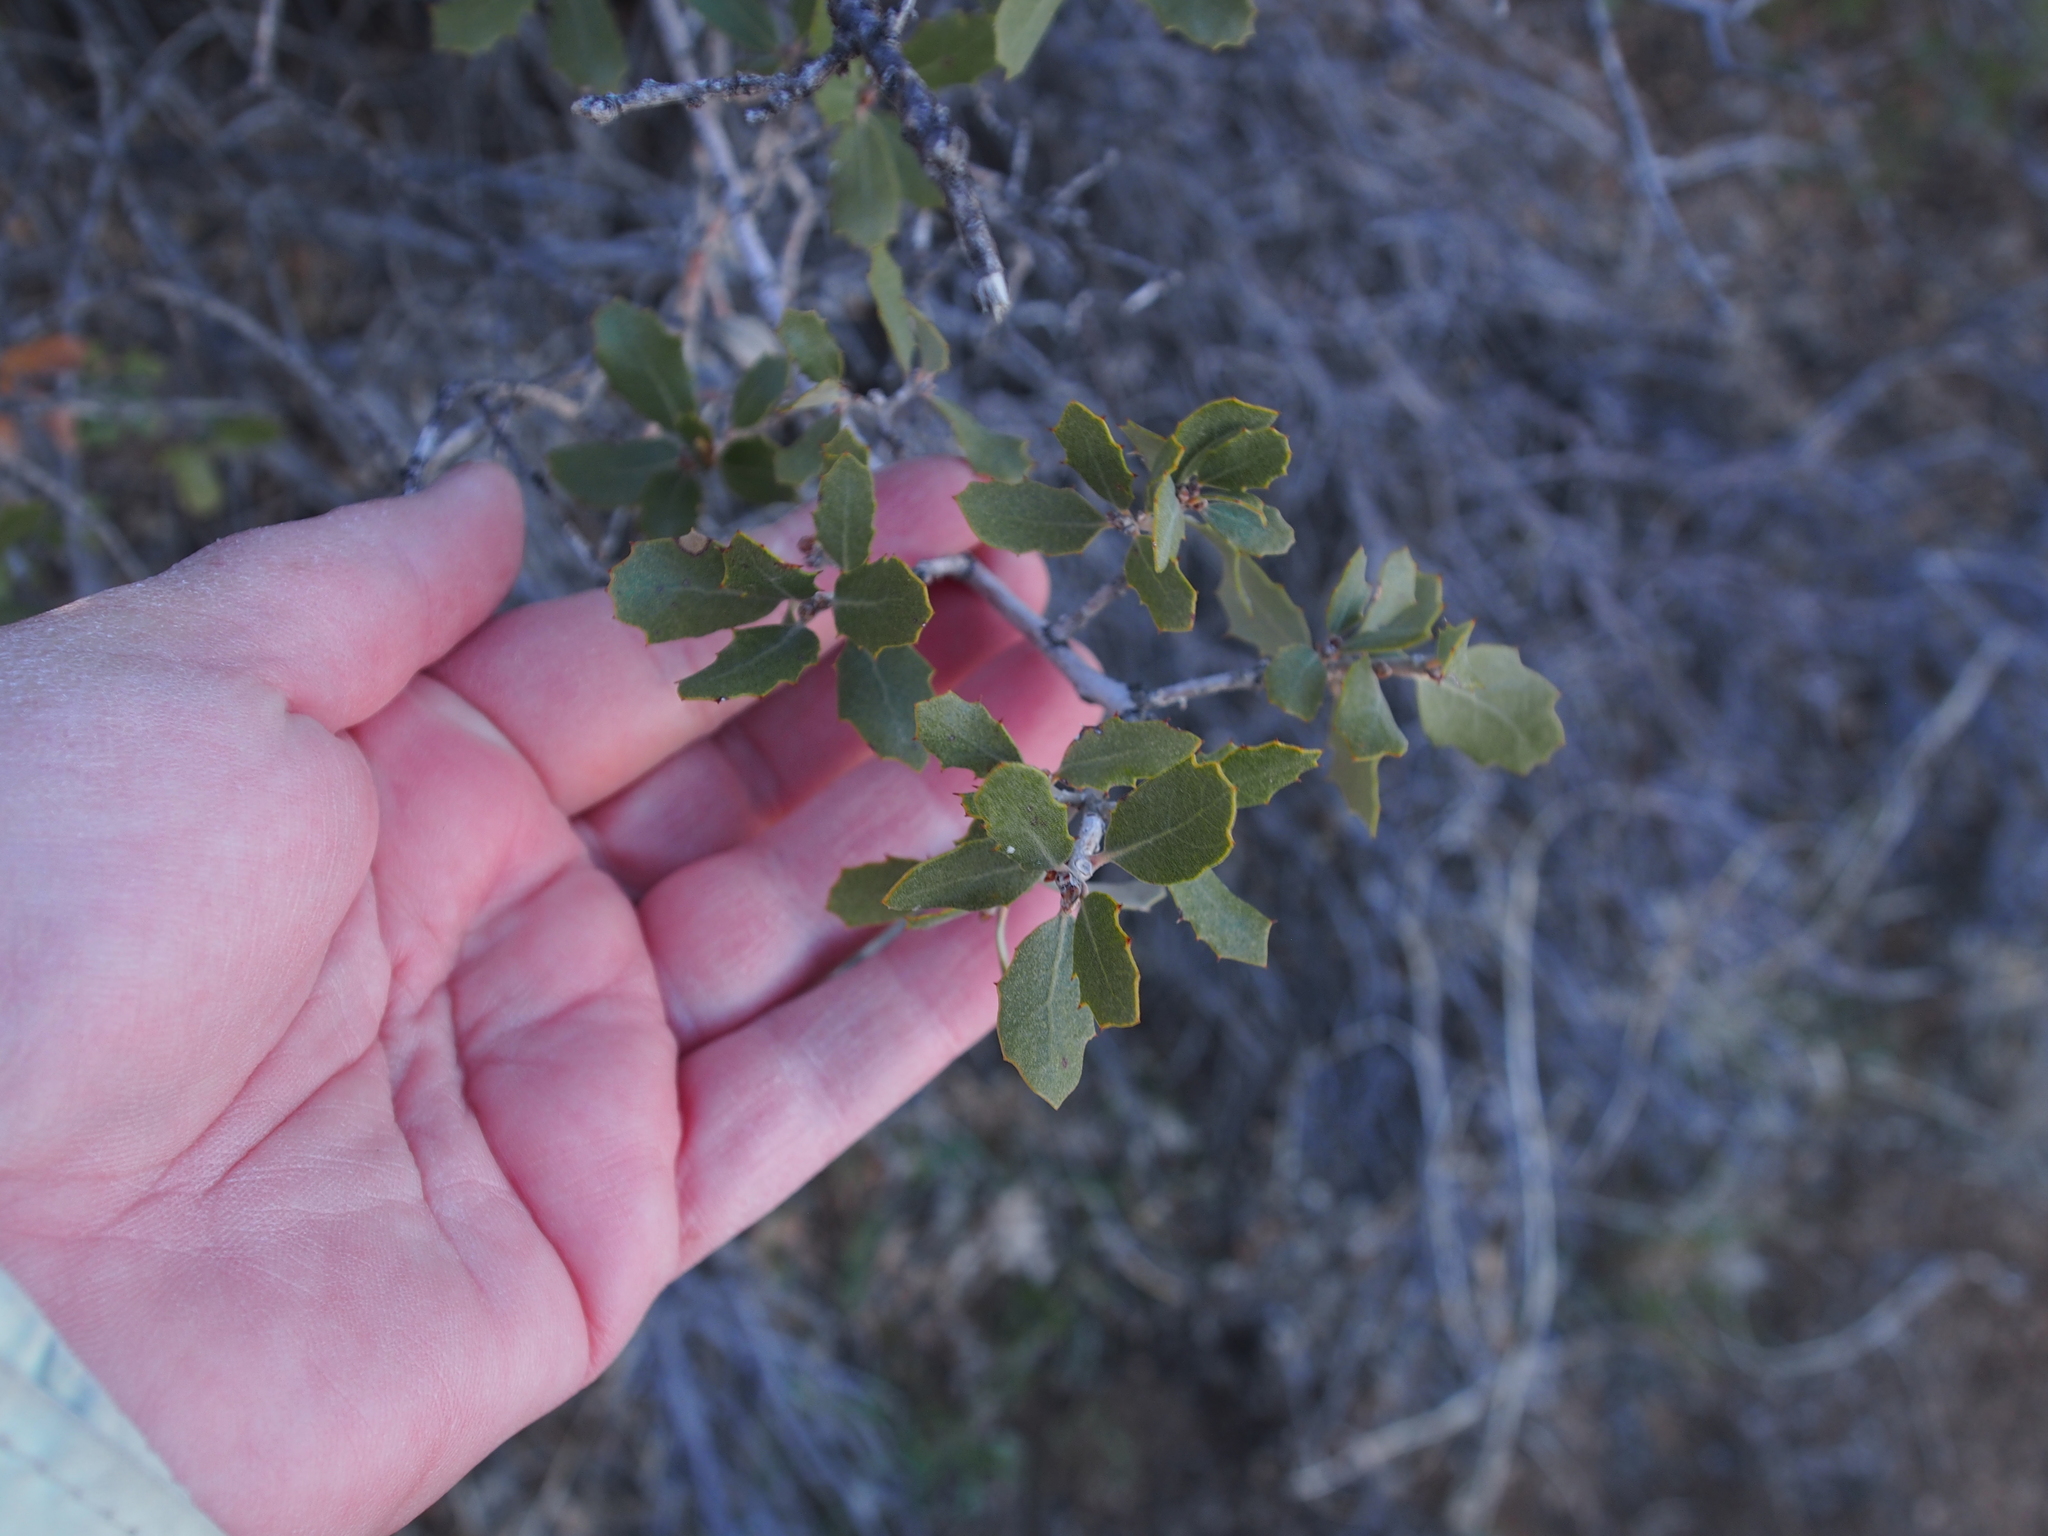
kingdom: Plantae
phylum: Tracheophyta
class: Magnoliopsida
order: Fagales
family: Fagaceae
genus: Quercus
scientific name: Quercus cornelius-mulleri
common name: Muller oak
